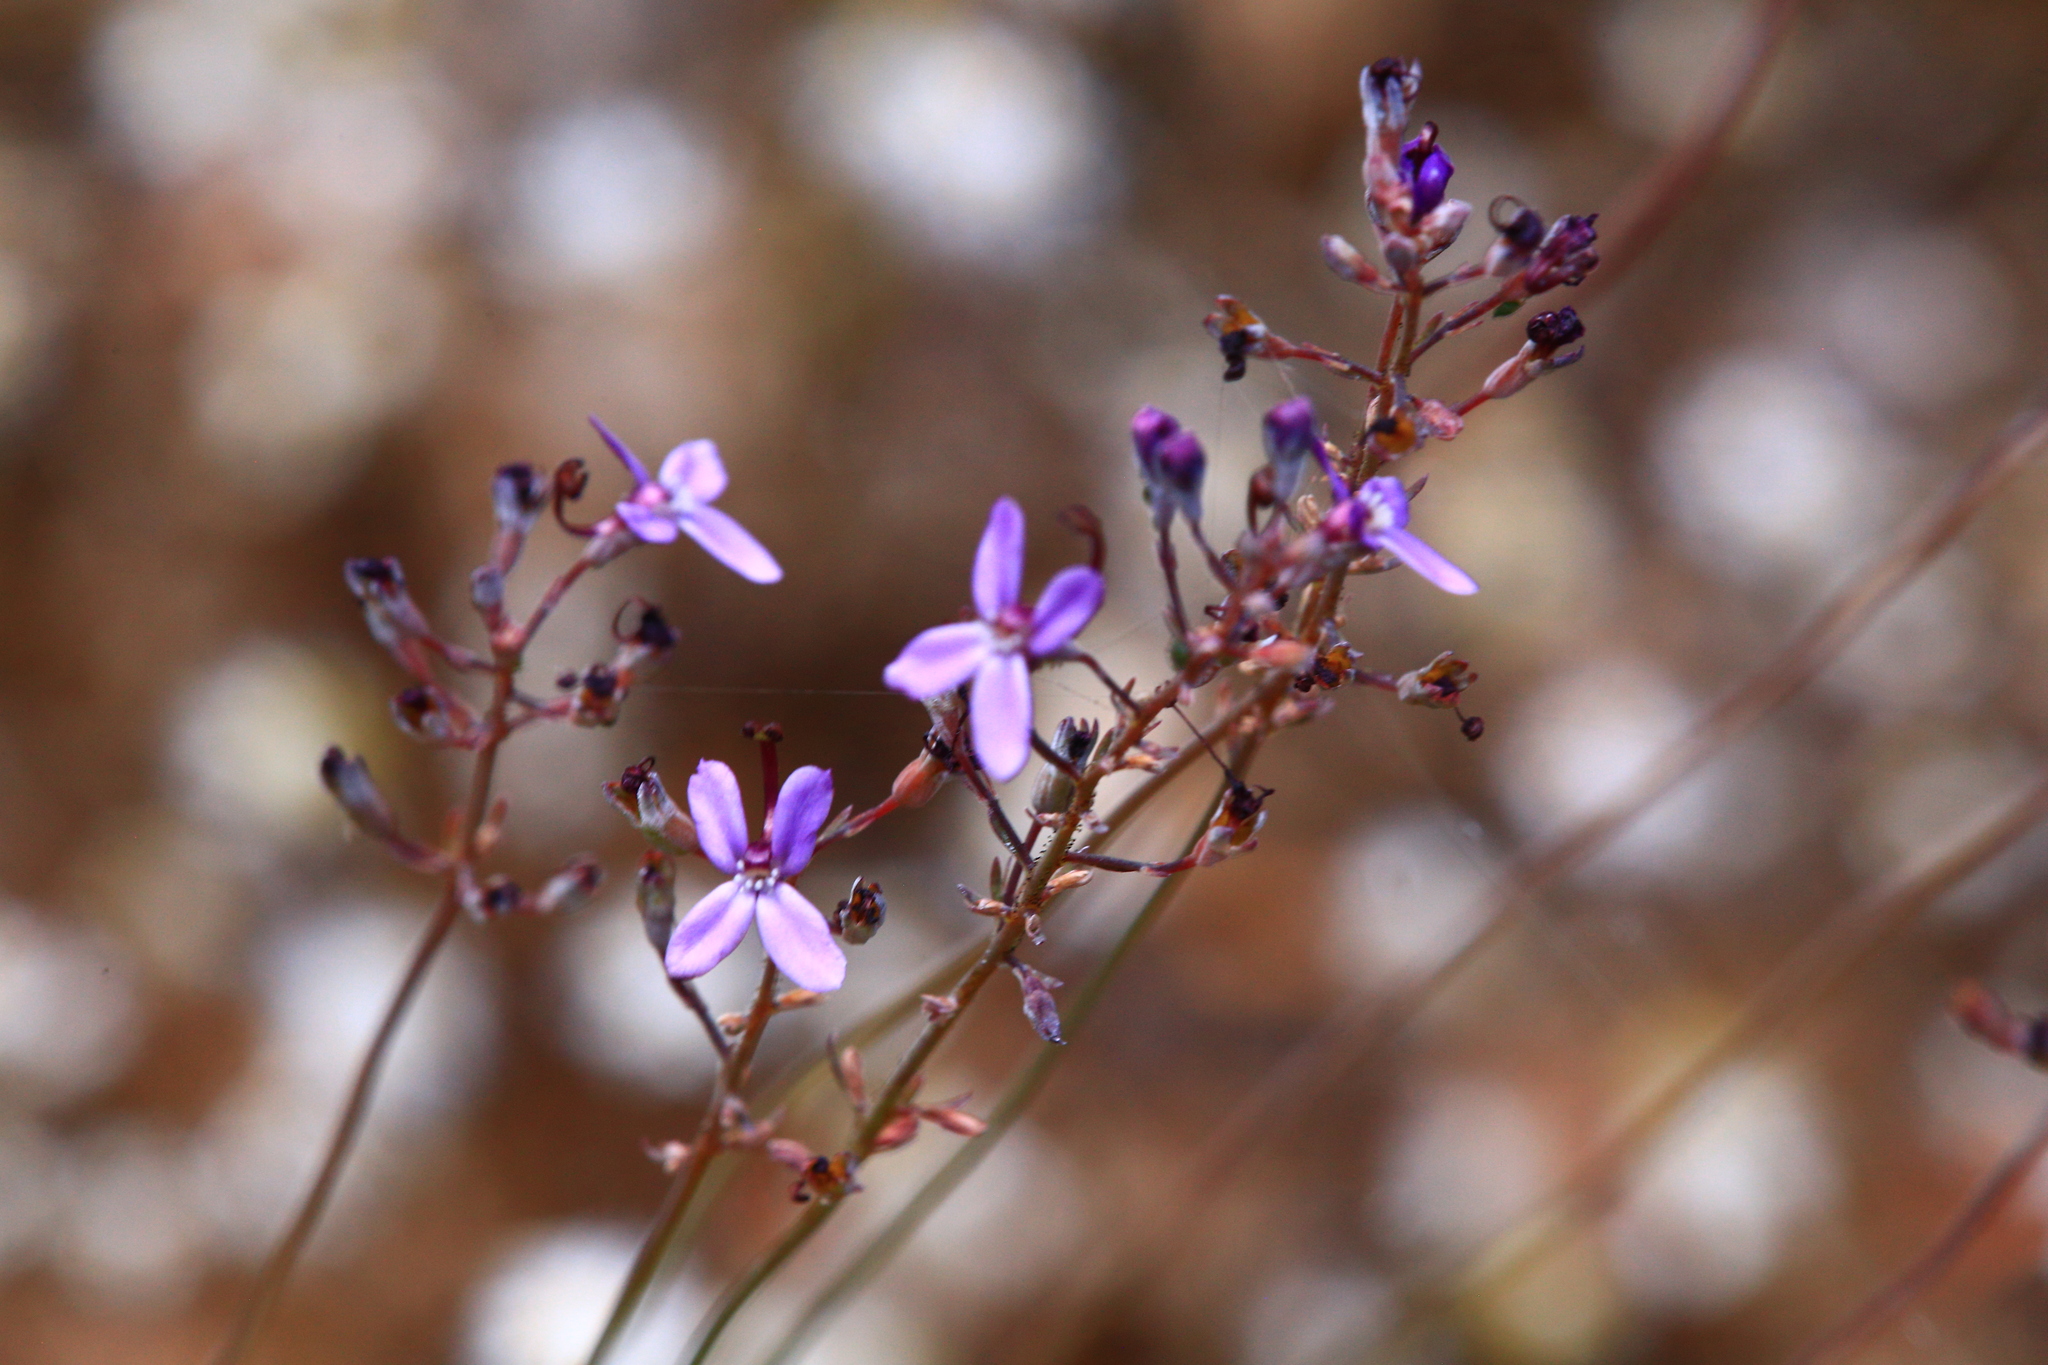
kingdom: Plantae
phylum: Tracheophyta
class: Magnoliopsida
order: Asterales
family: Stylidiaceae
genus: Stylidium
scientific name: Stylidium purpureum
